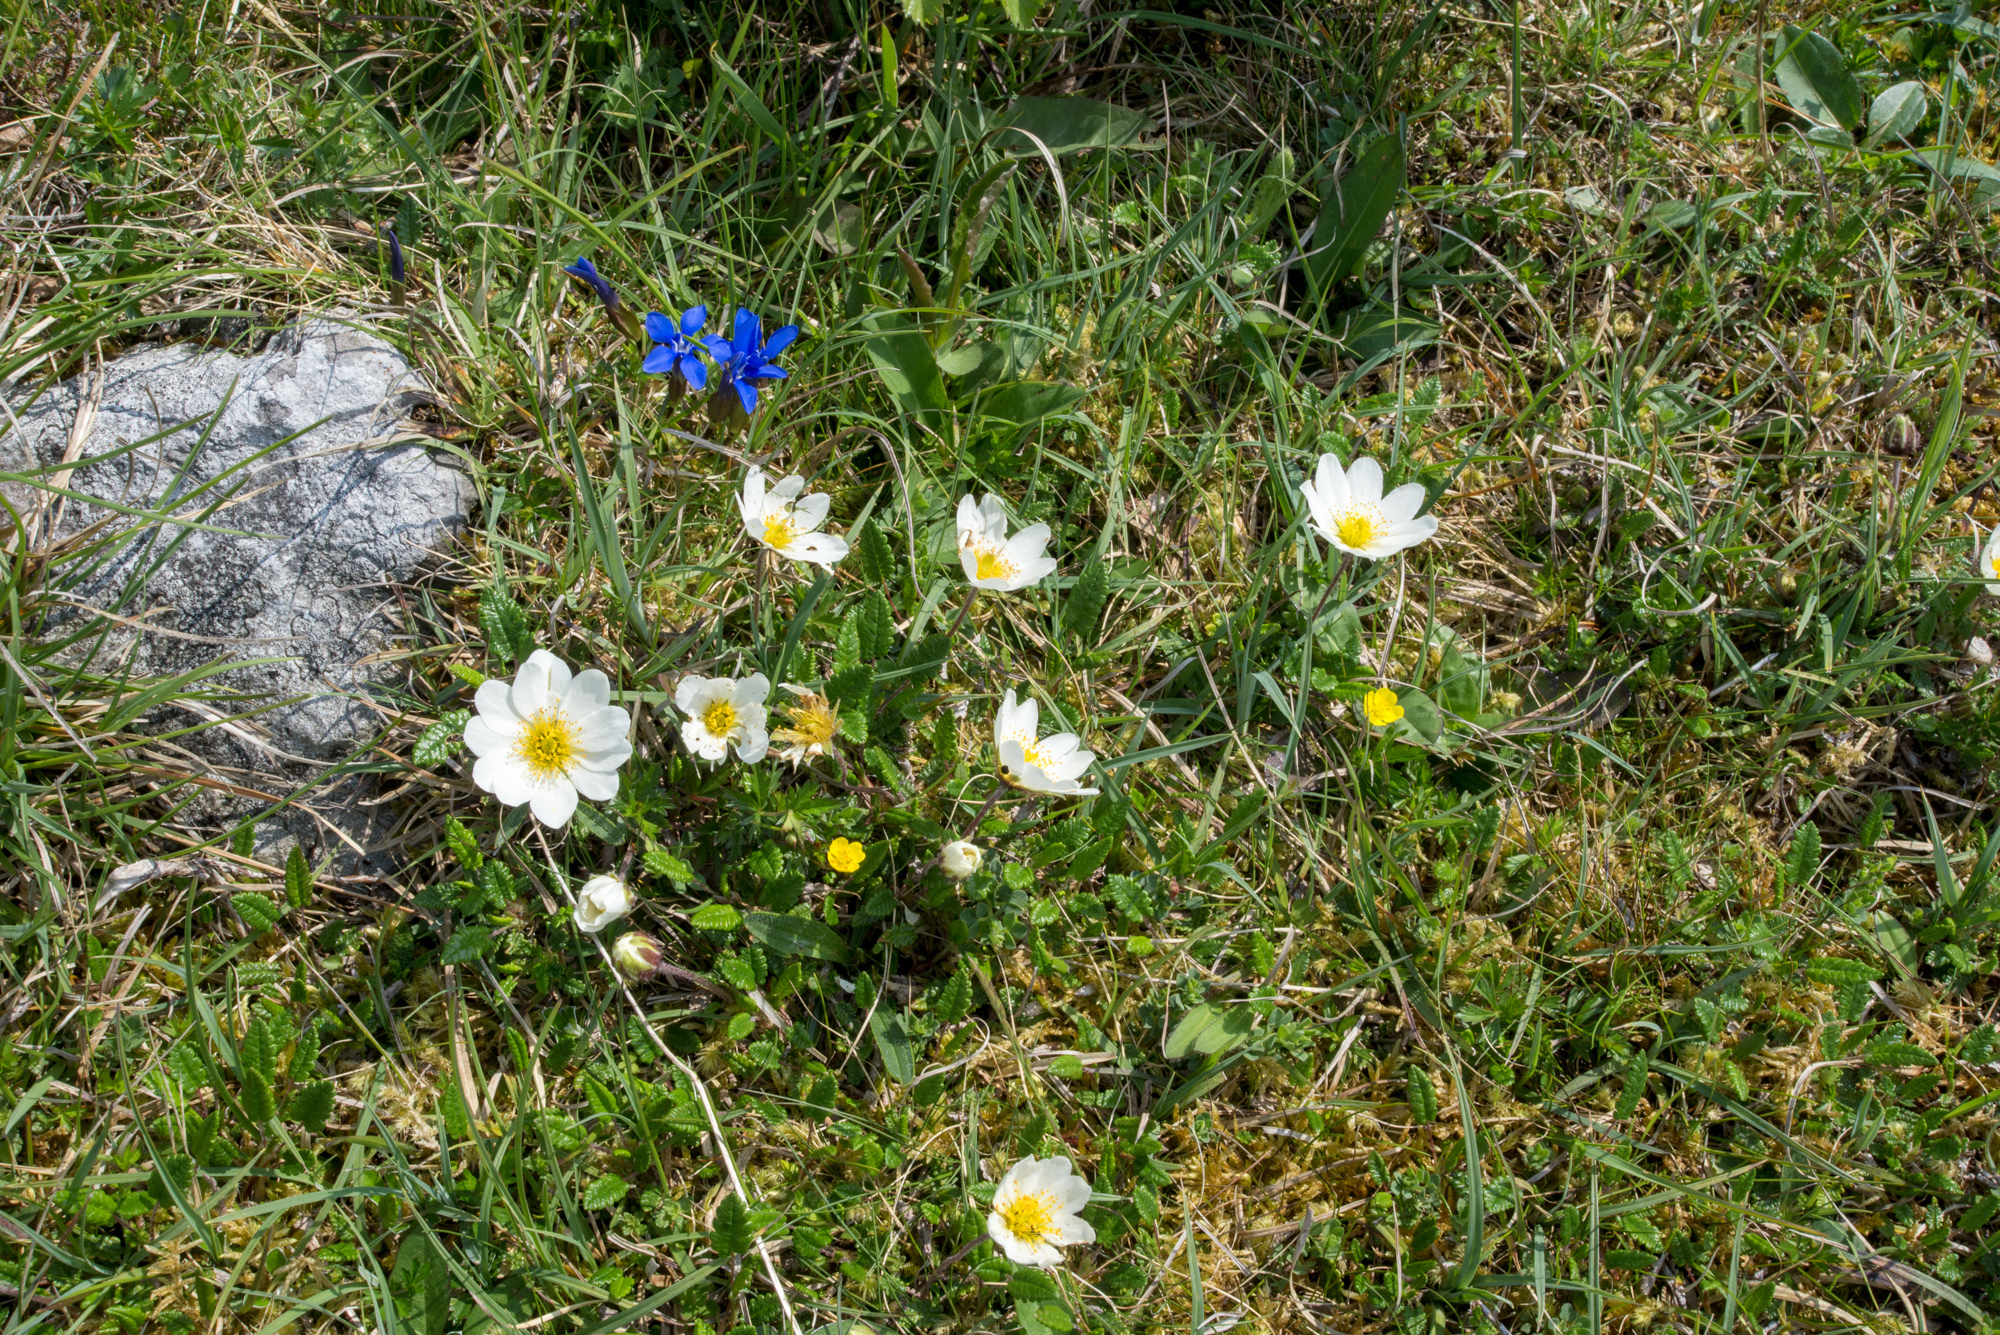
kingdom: Plantae
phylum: Tracheophyta
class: Magnoliopsida
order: Rosales
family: Rosaceae
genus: Dryas
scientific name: Dryas octopetala
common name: Eight-petal mountain-avens
